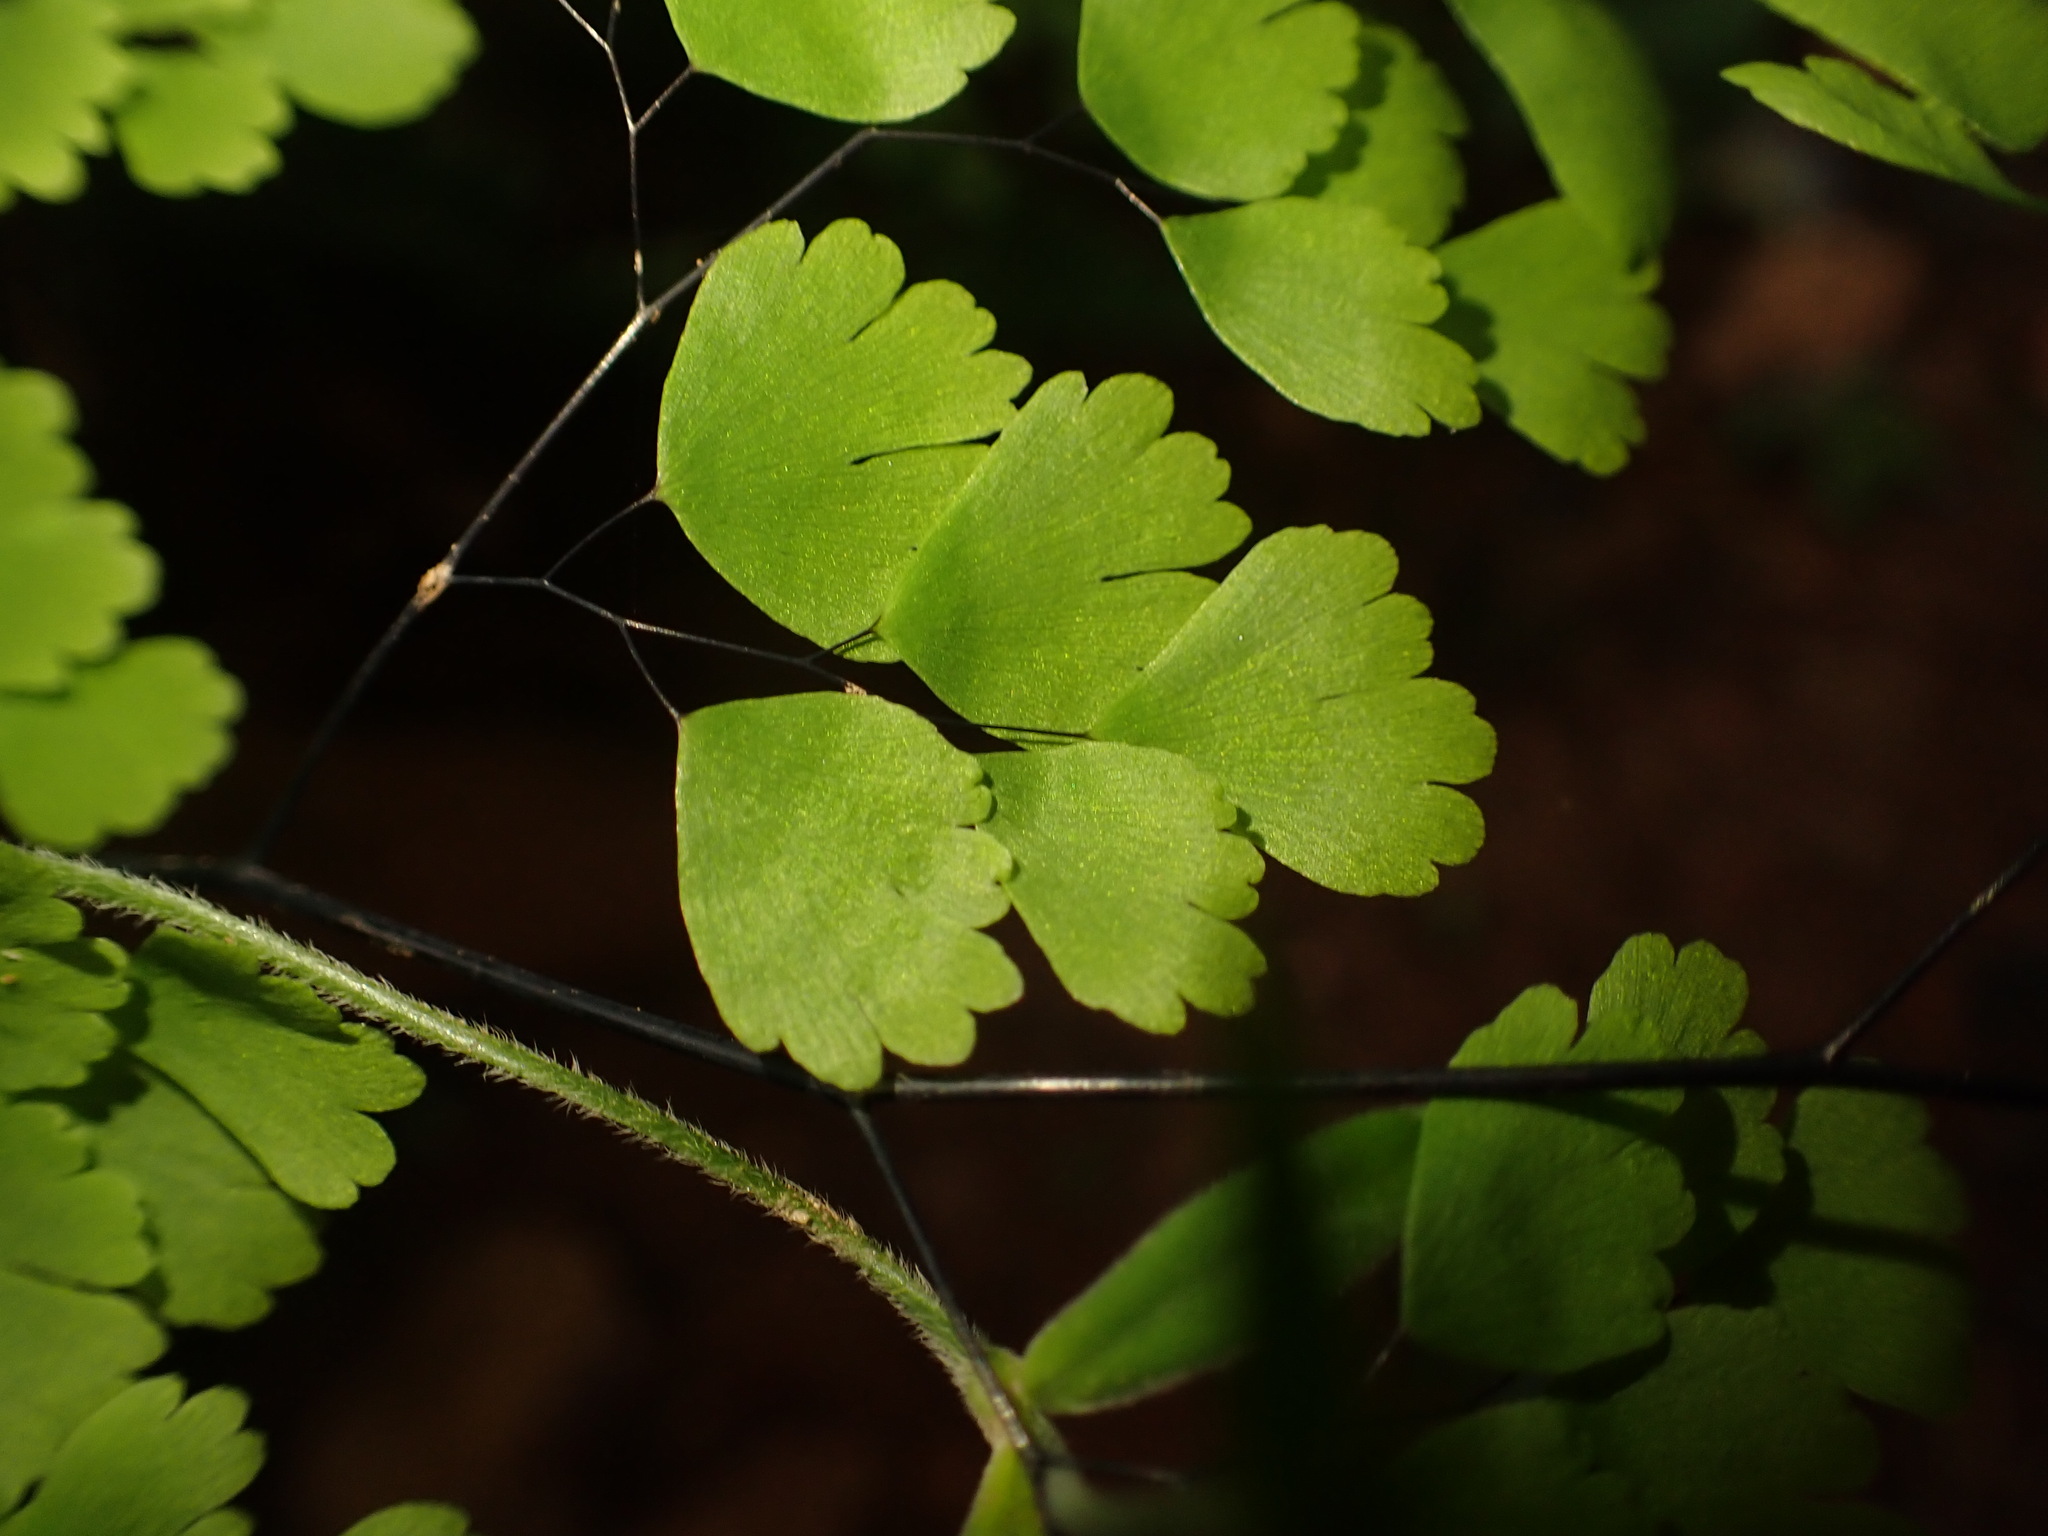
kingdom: Plantae
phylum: Tracheophyta
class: Polypodiopsida
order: Polypodiales
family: Pteridaceae
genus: Adiantum
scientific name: Adiantum raddianum
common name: Delta maidenhair fern
